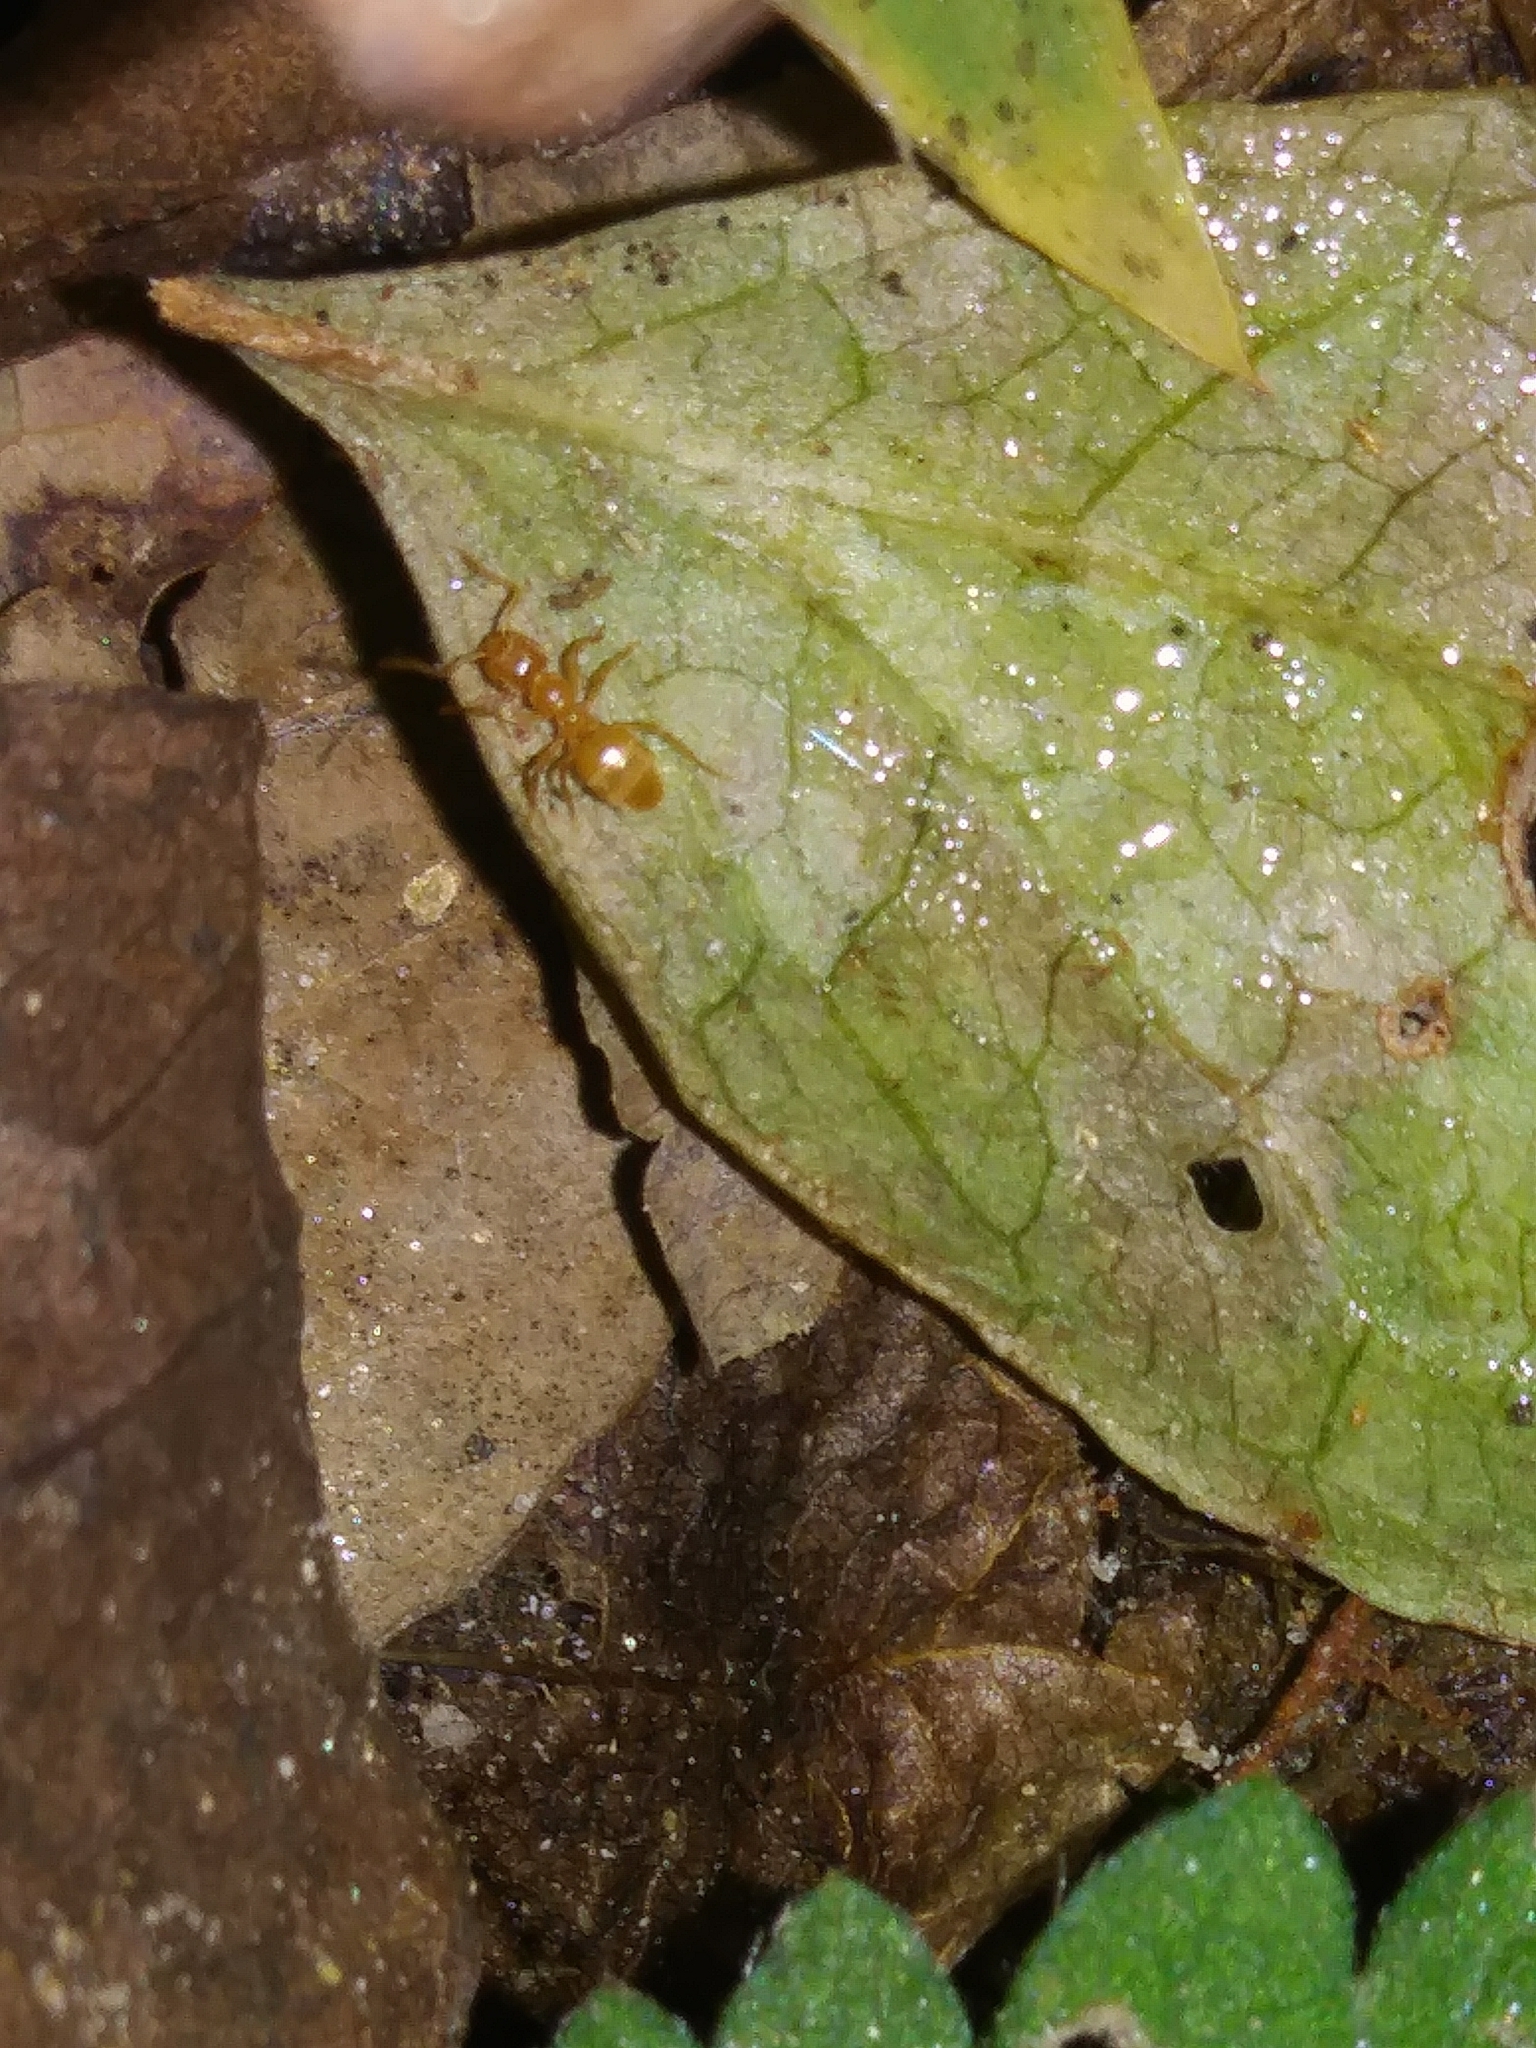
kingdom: Animalia
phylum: Arthropoda
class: Insecta
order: Hymenoptera
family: Formicidae
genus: Lasius
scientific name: Lasius nearcticus
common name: New world fuzzy ant
